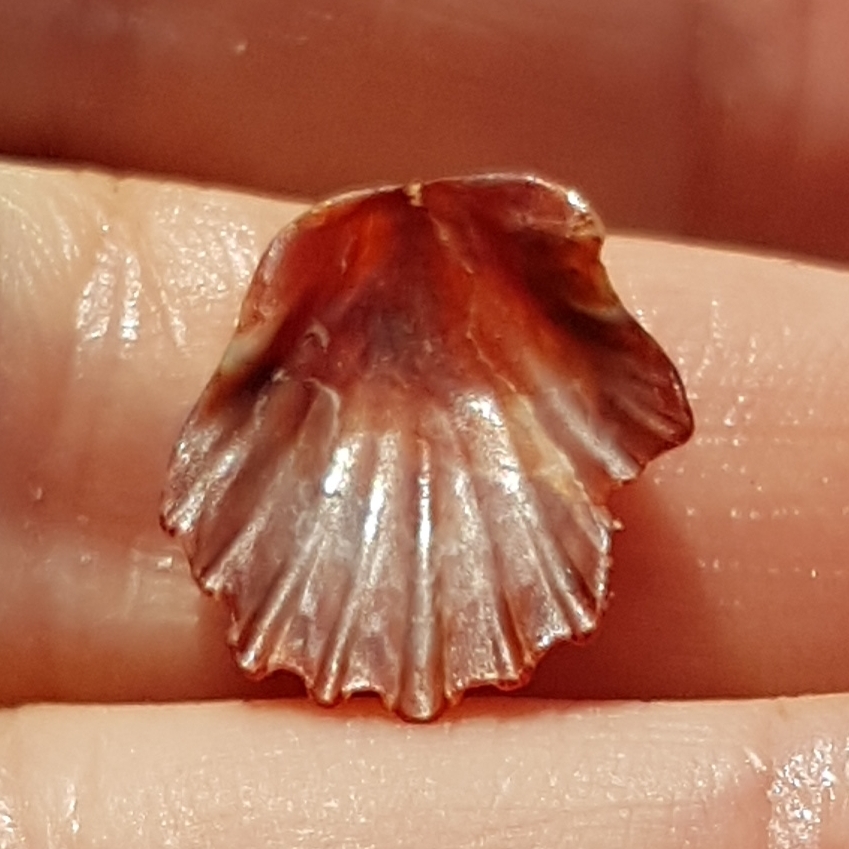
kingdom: Animalia
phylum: Mollusca
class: Bivalvia
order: Pectinida
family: Pectinidae
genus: Flexopecten
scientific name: Flexopecten glaber
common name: Smooth scallop
